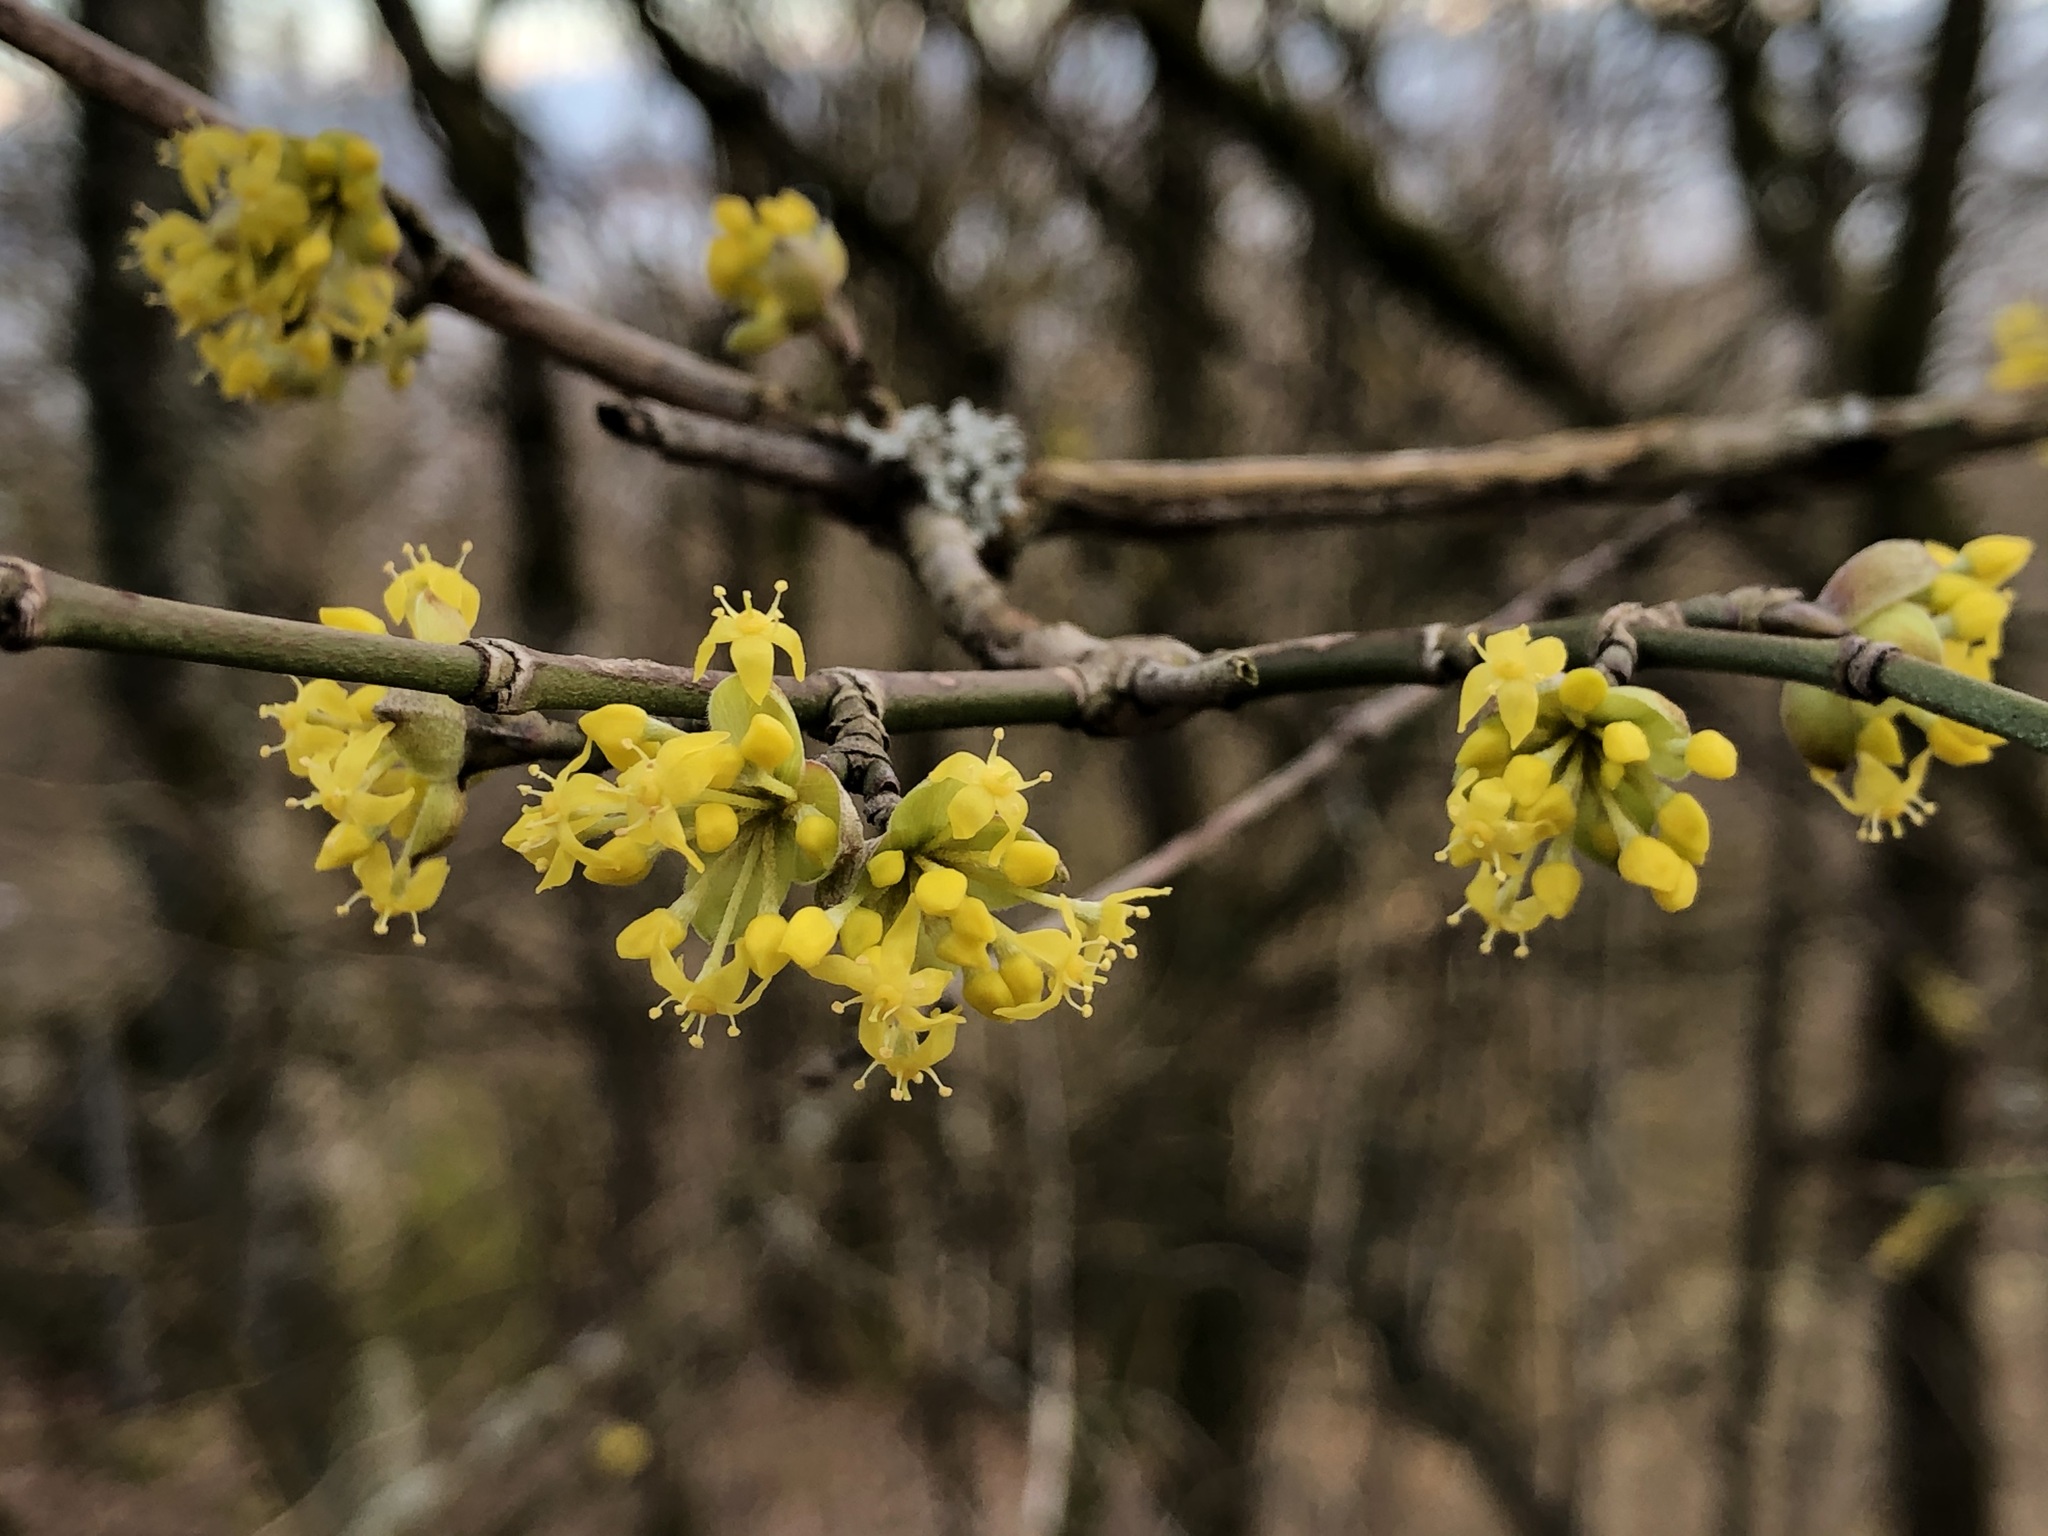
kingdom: Plantae
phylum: Tracheophyta
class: Magnoliopsida
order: Cornales
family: Cornaceae
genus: Cornus
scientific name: Cornus mas
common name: Cornelian-cherry
